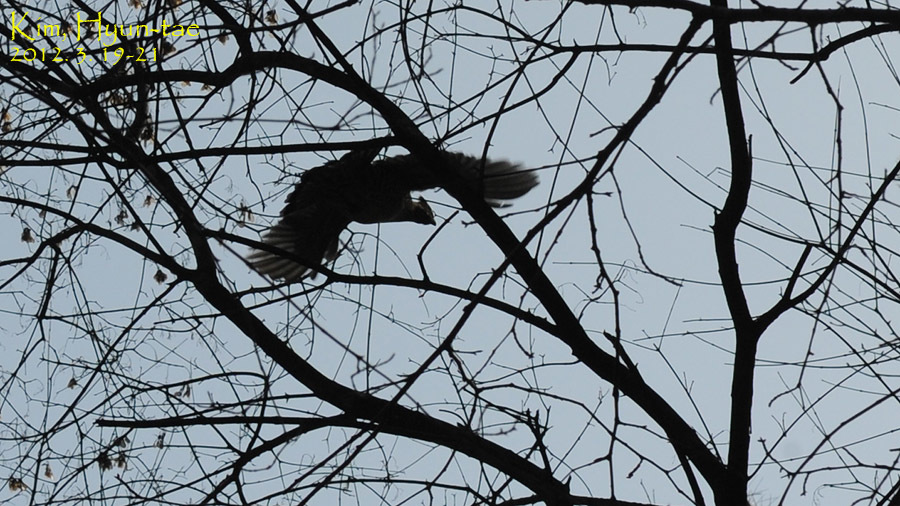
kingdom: Animalia
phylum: Chordata
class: Aves
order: Galliformes
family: Phasianidae
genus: Tetrastes
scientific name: Tetrastes bonasia
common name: Hazel grouse
